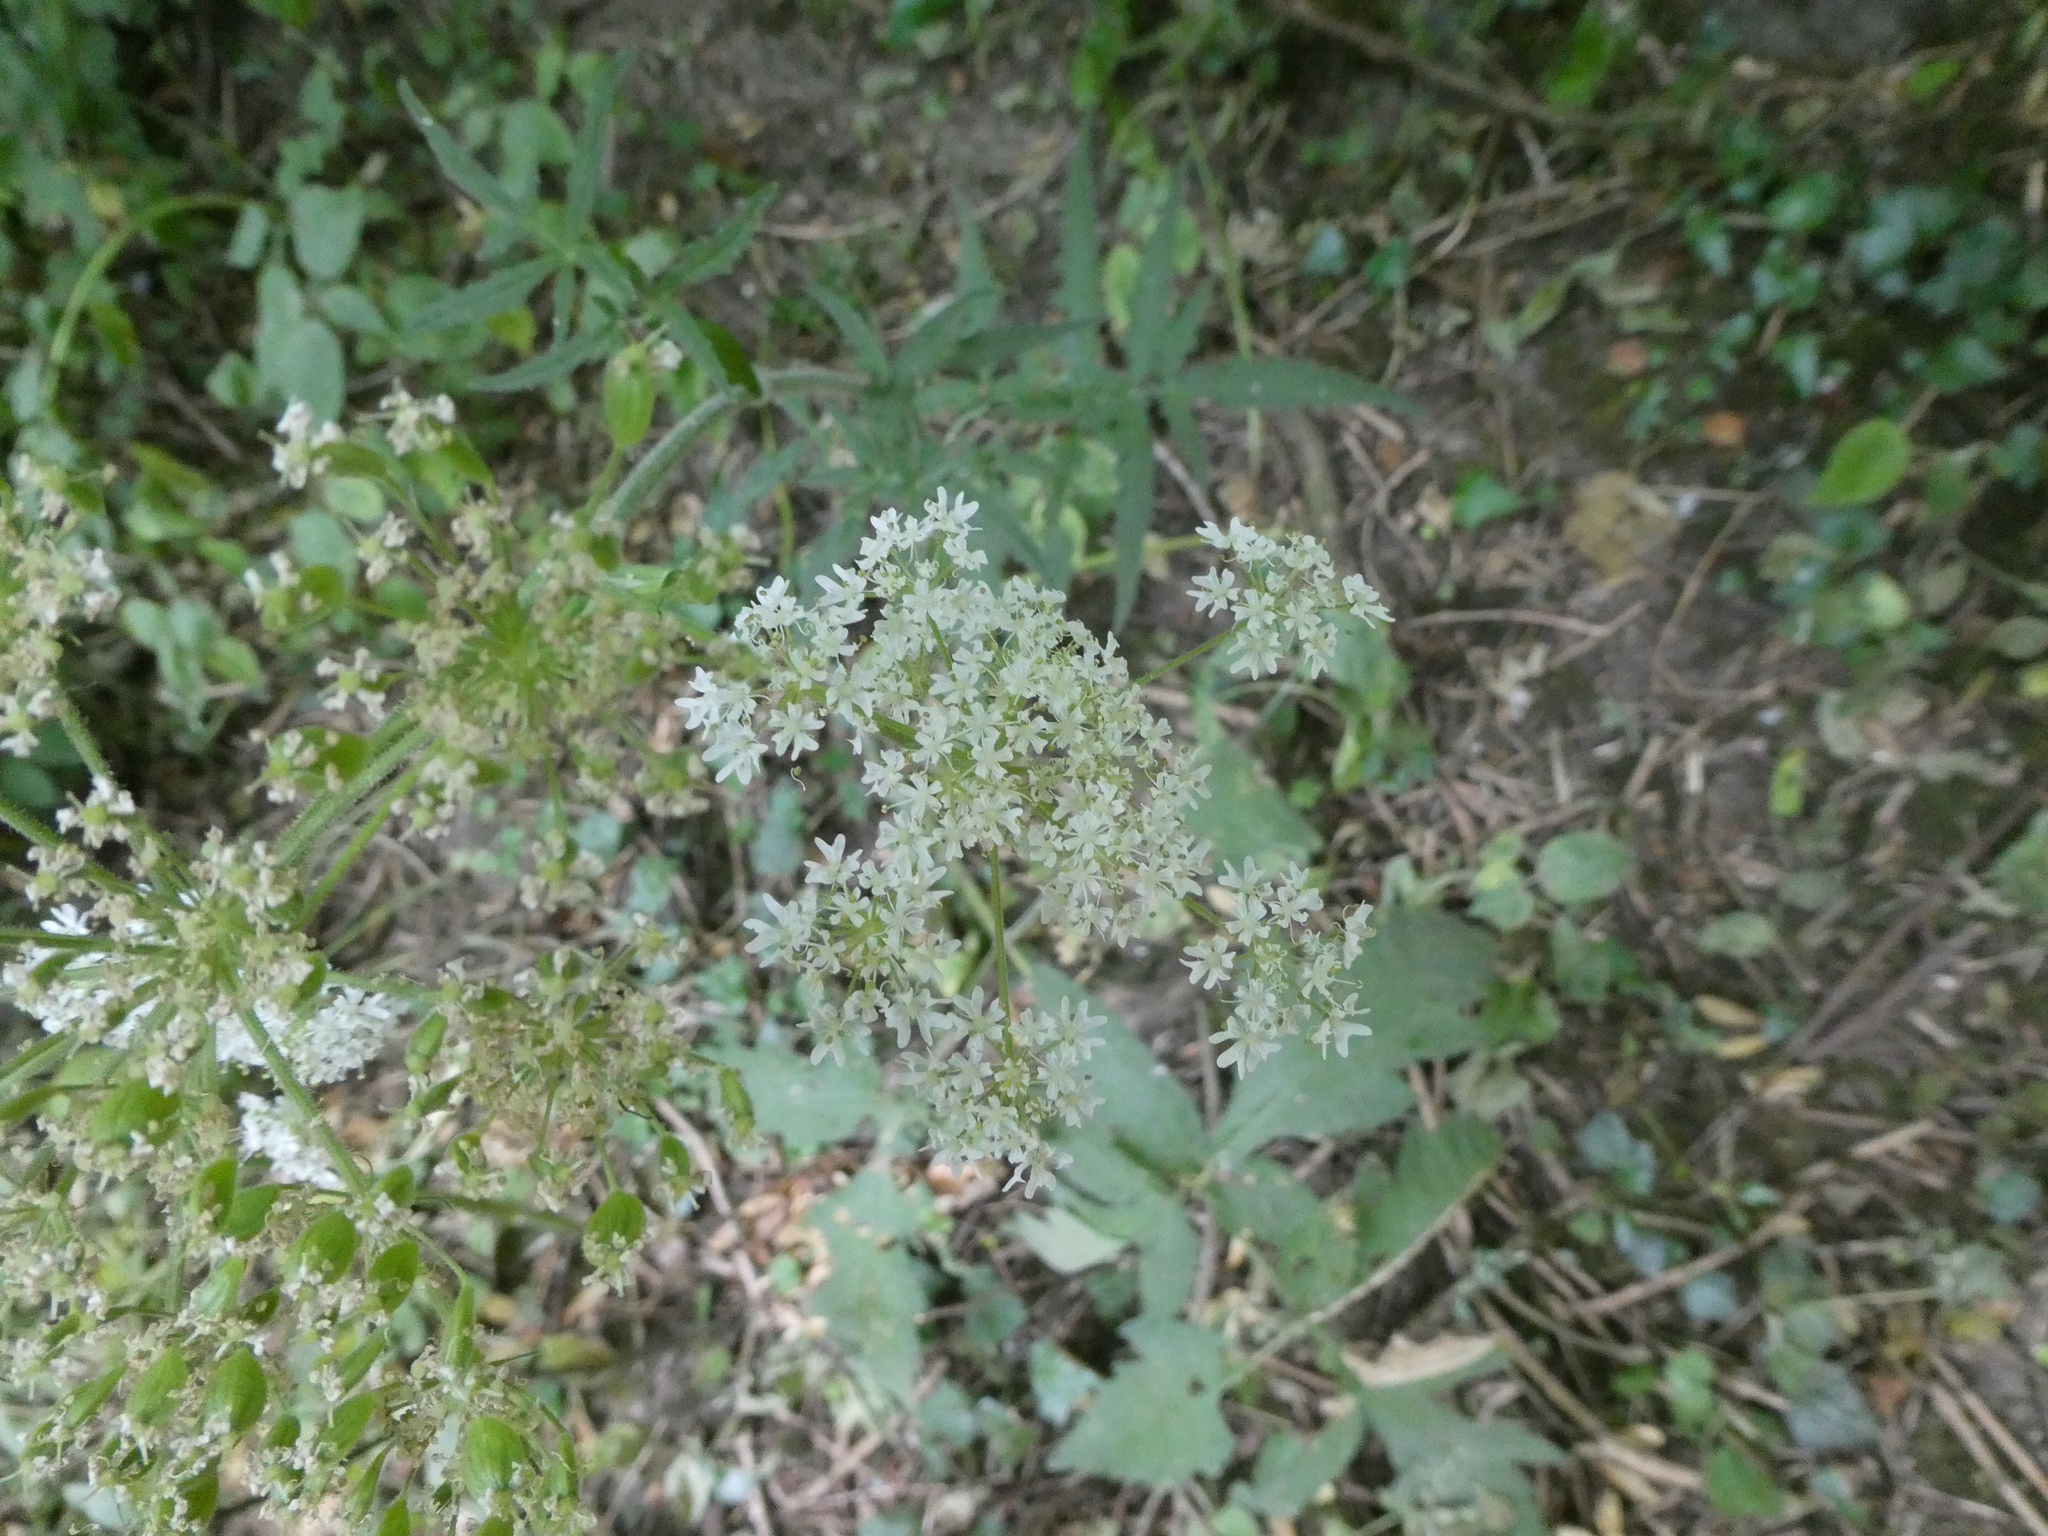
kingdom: Plantae
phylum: Tracheophyta
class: Magnoliopsida
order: Apiales
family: Apiaceae
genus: Heracleum
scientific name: Heracleum sphondylium
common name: Hogweed
